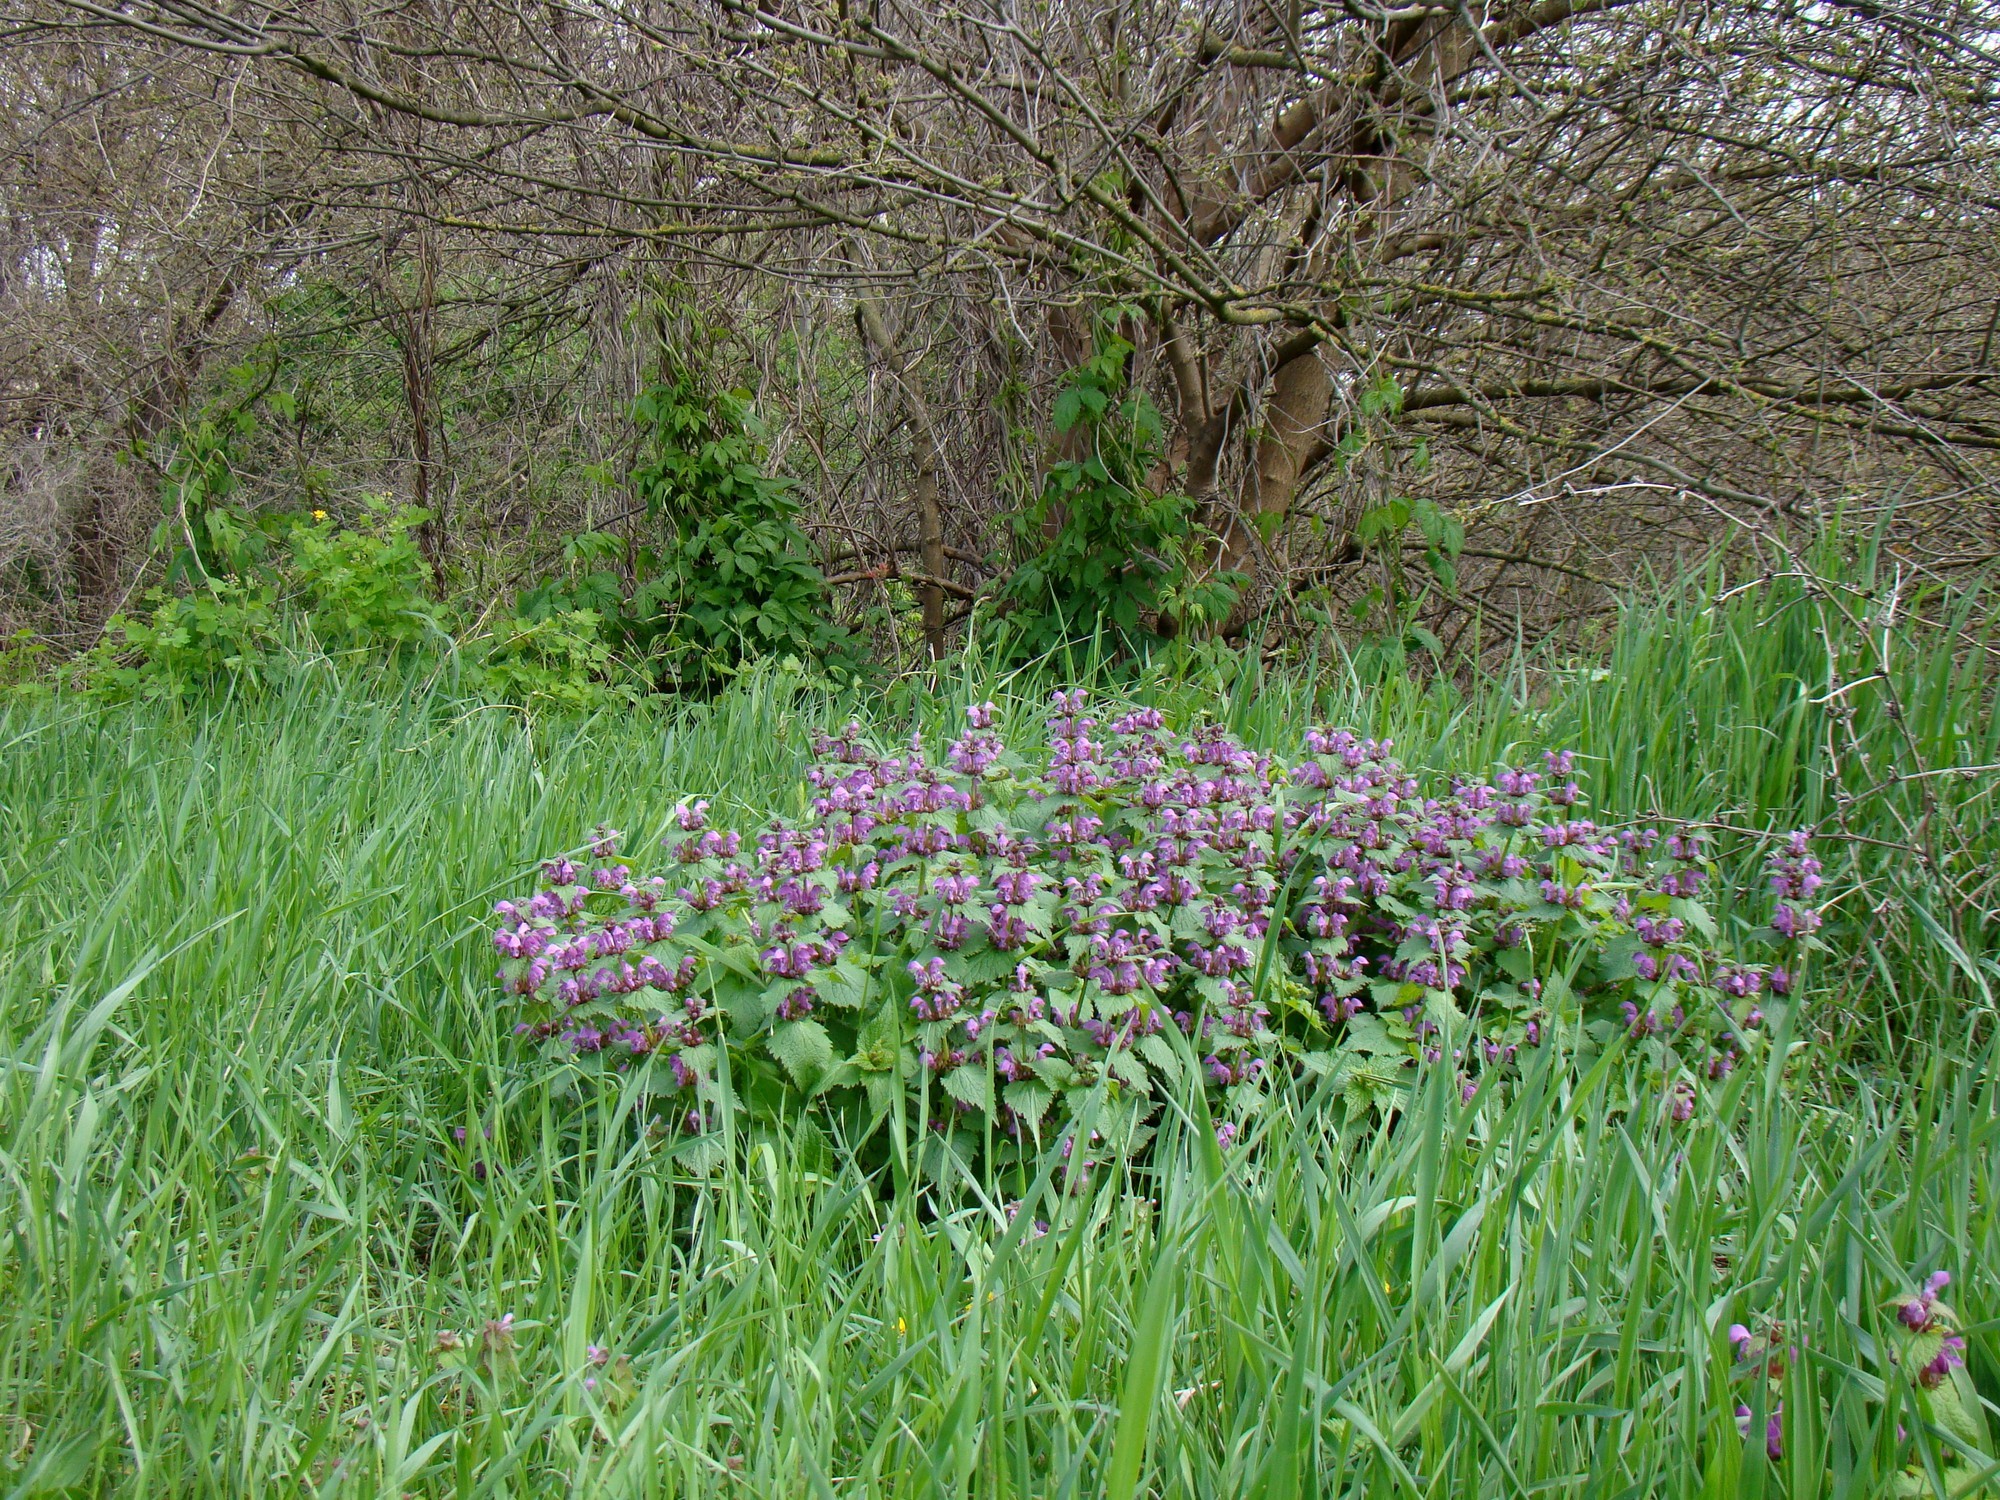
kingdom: Plantae
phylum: Tracheophyta
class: Magnoliopsida
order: Lamiales
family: Lamiaceae
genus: Lamium
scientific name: Lamium maculatum
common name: Spotted dead-nettle
